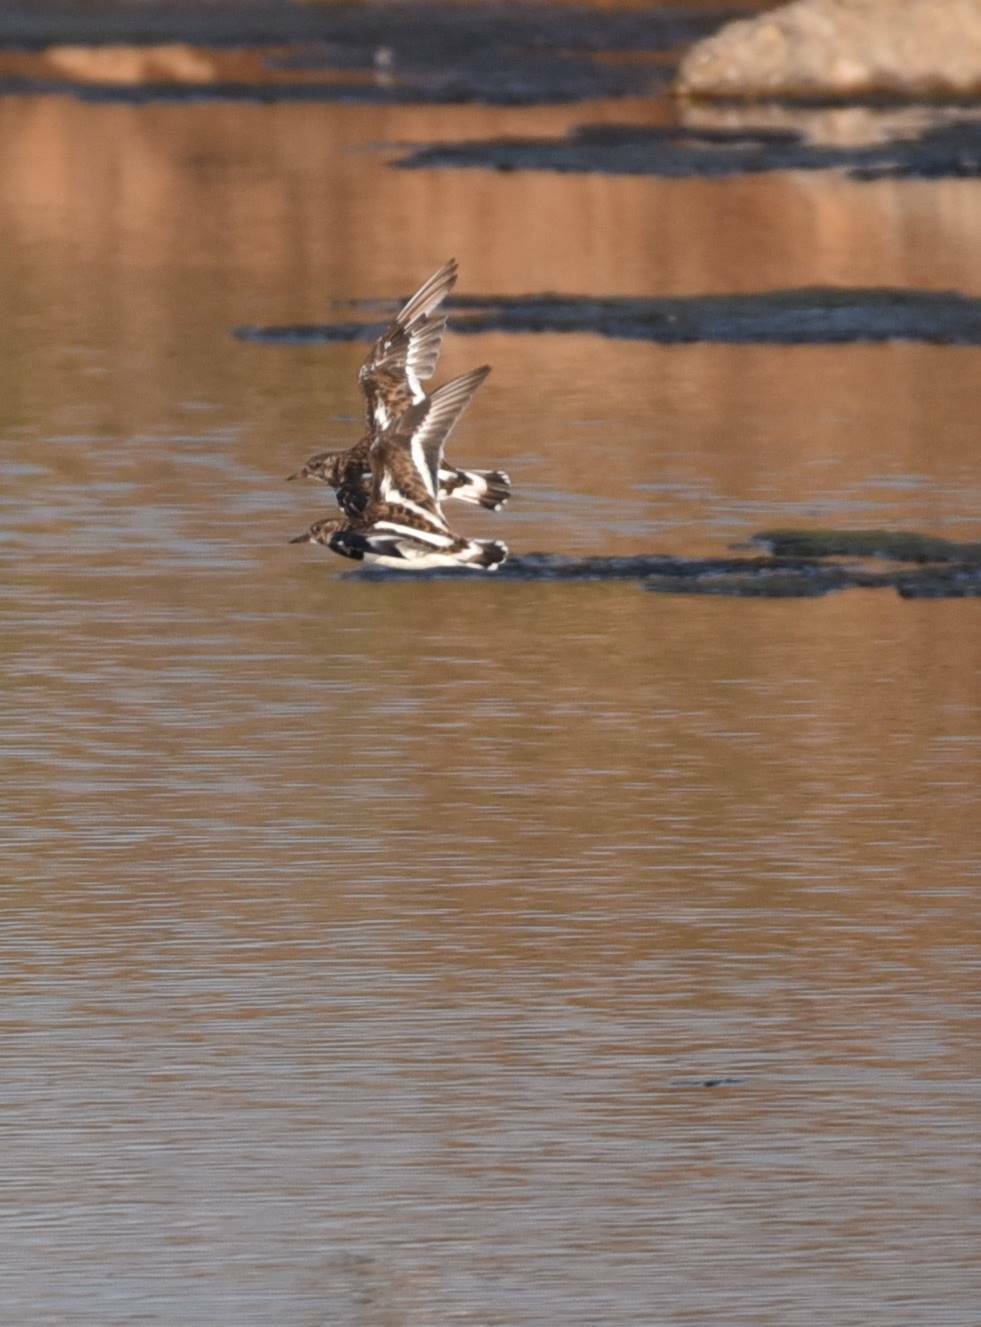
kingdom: Animalia
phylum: Chordata
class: Aves
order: Charadriiformes
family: Scolopacidae
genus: Arenaria
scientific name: Arenaria interpres
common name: Ruddy turnstone
